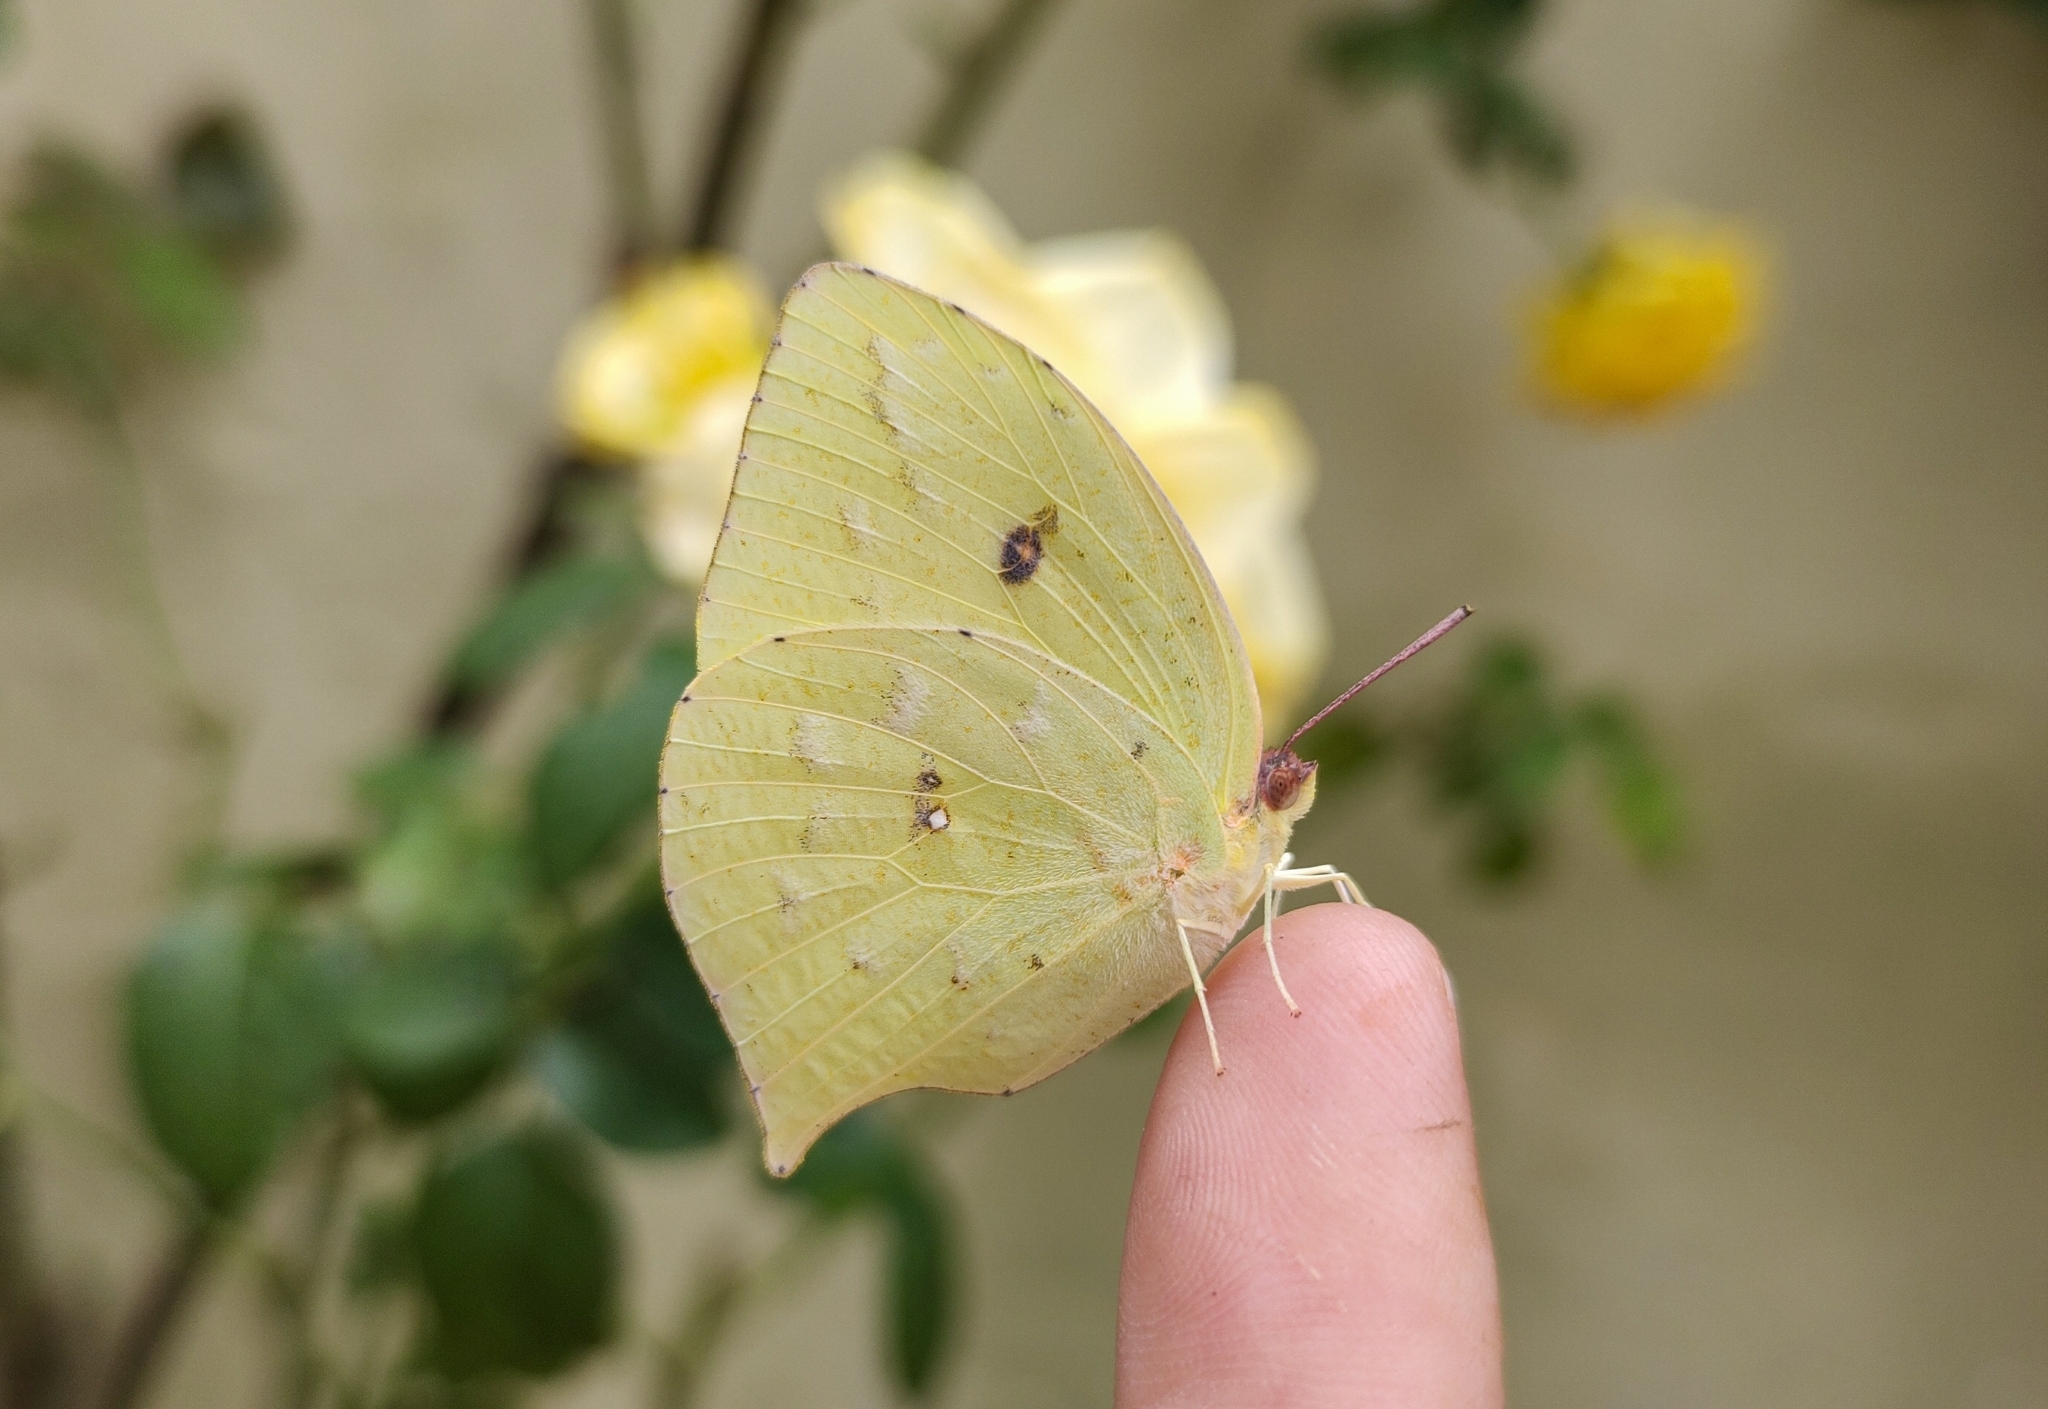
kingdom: Animalia
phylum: Arthropoda
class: Insecta
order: Lepidoptera
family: Pieridae
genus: Phoebis
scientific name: Phoebis neocypris
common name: Tailed sulphur
